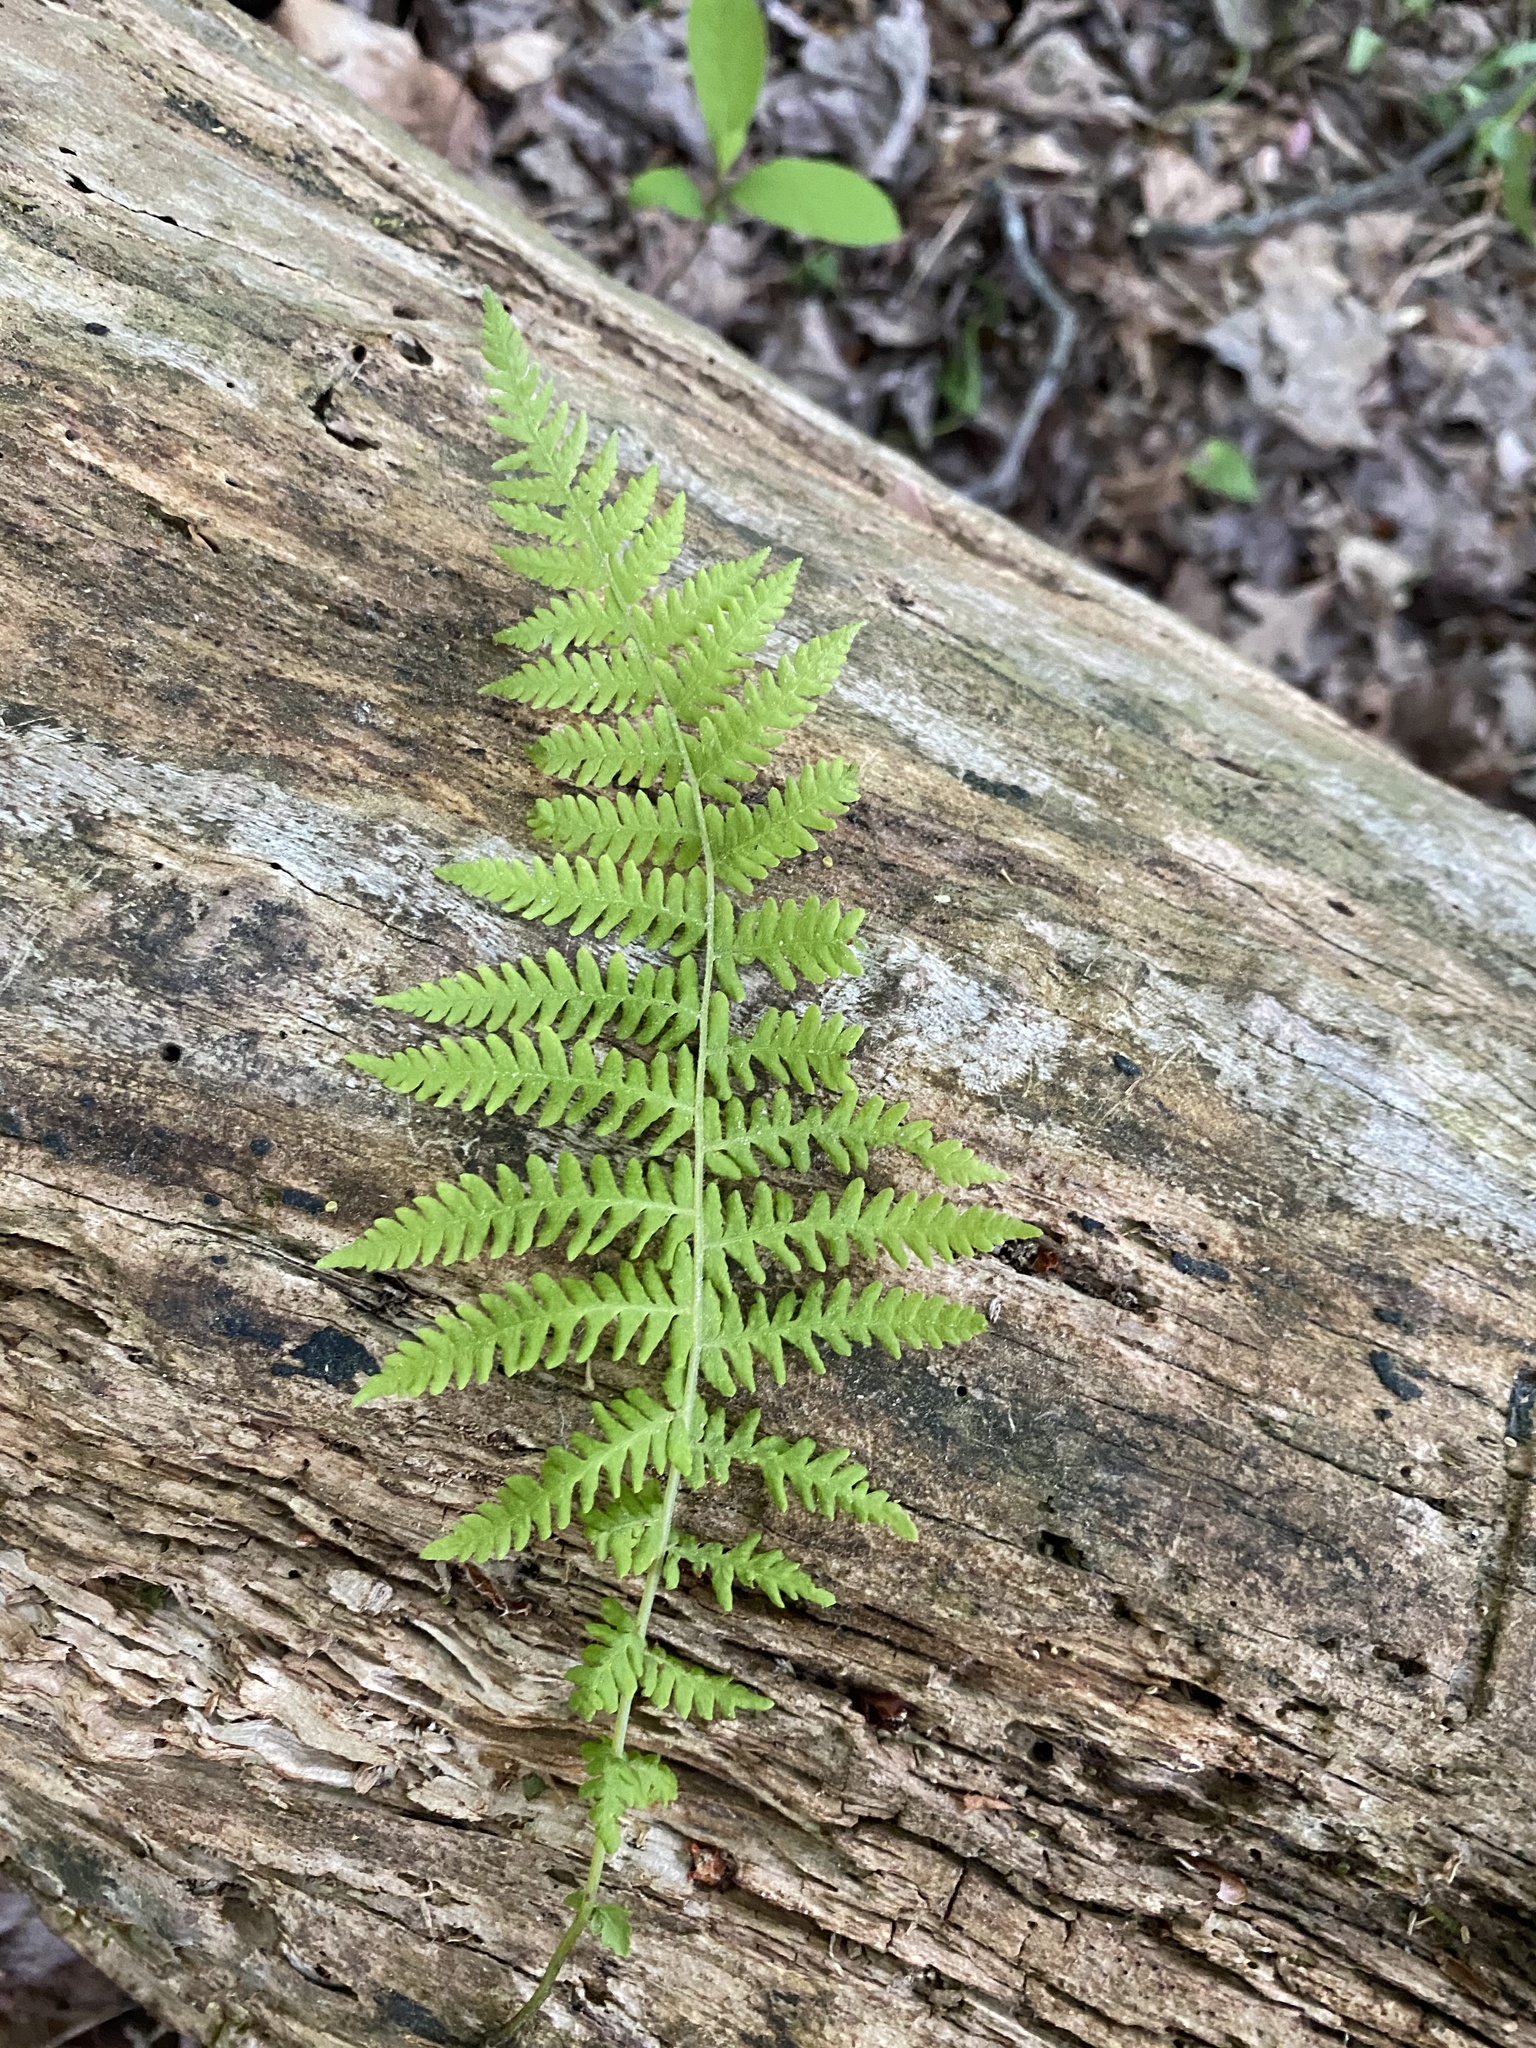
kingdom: Plantae
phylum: Tracheophyta
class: Polypodiopsida
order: Polypodiales
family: Thelypteridaceae
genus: Amauropelta
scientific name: Amauropelta noveboracensis
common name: New york fern
